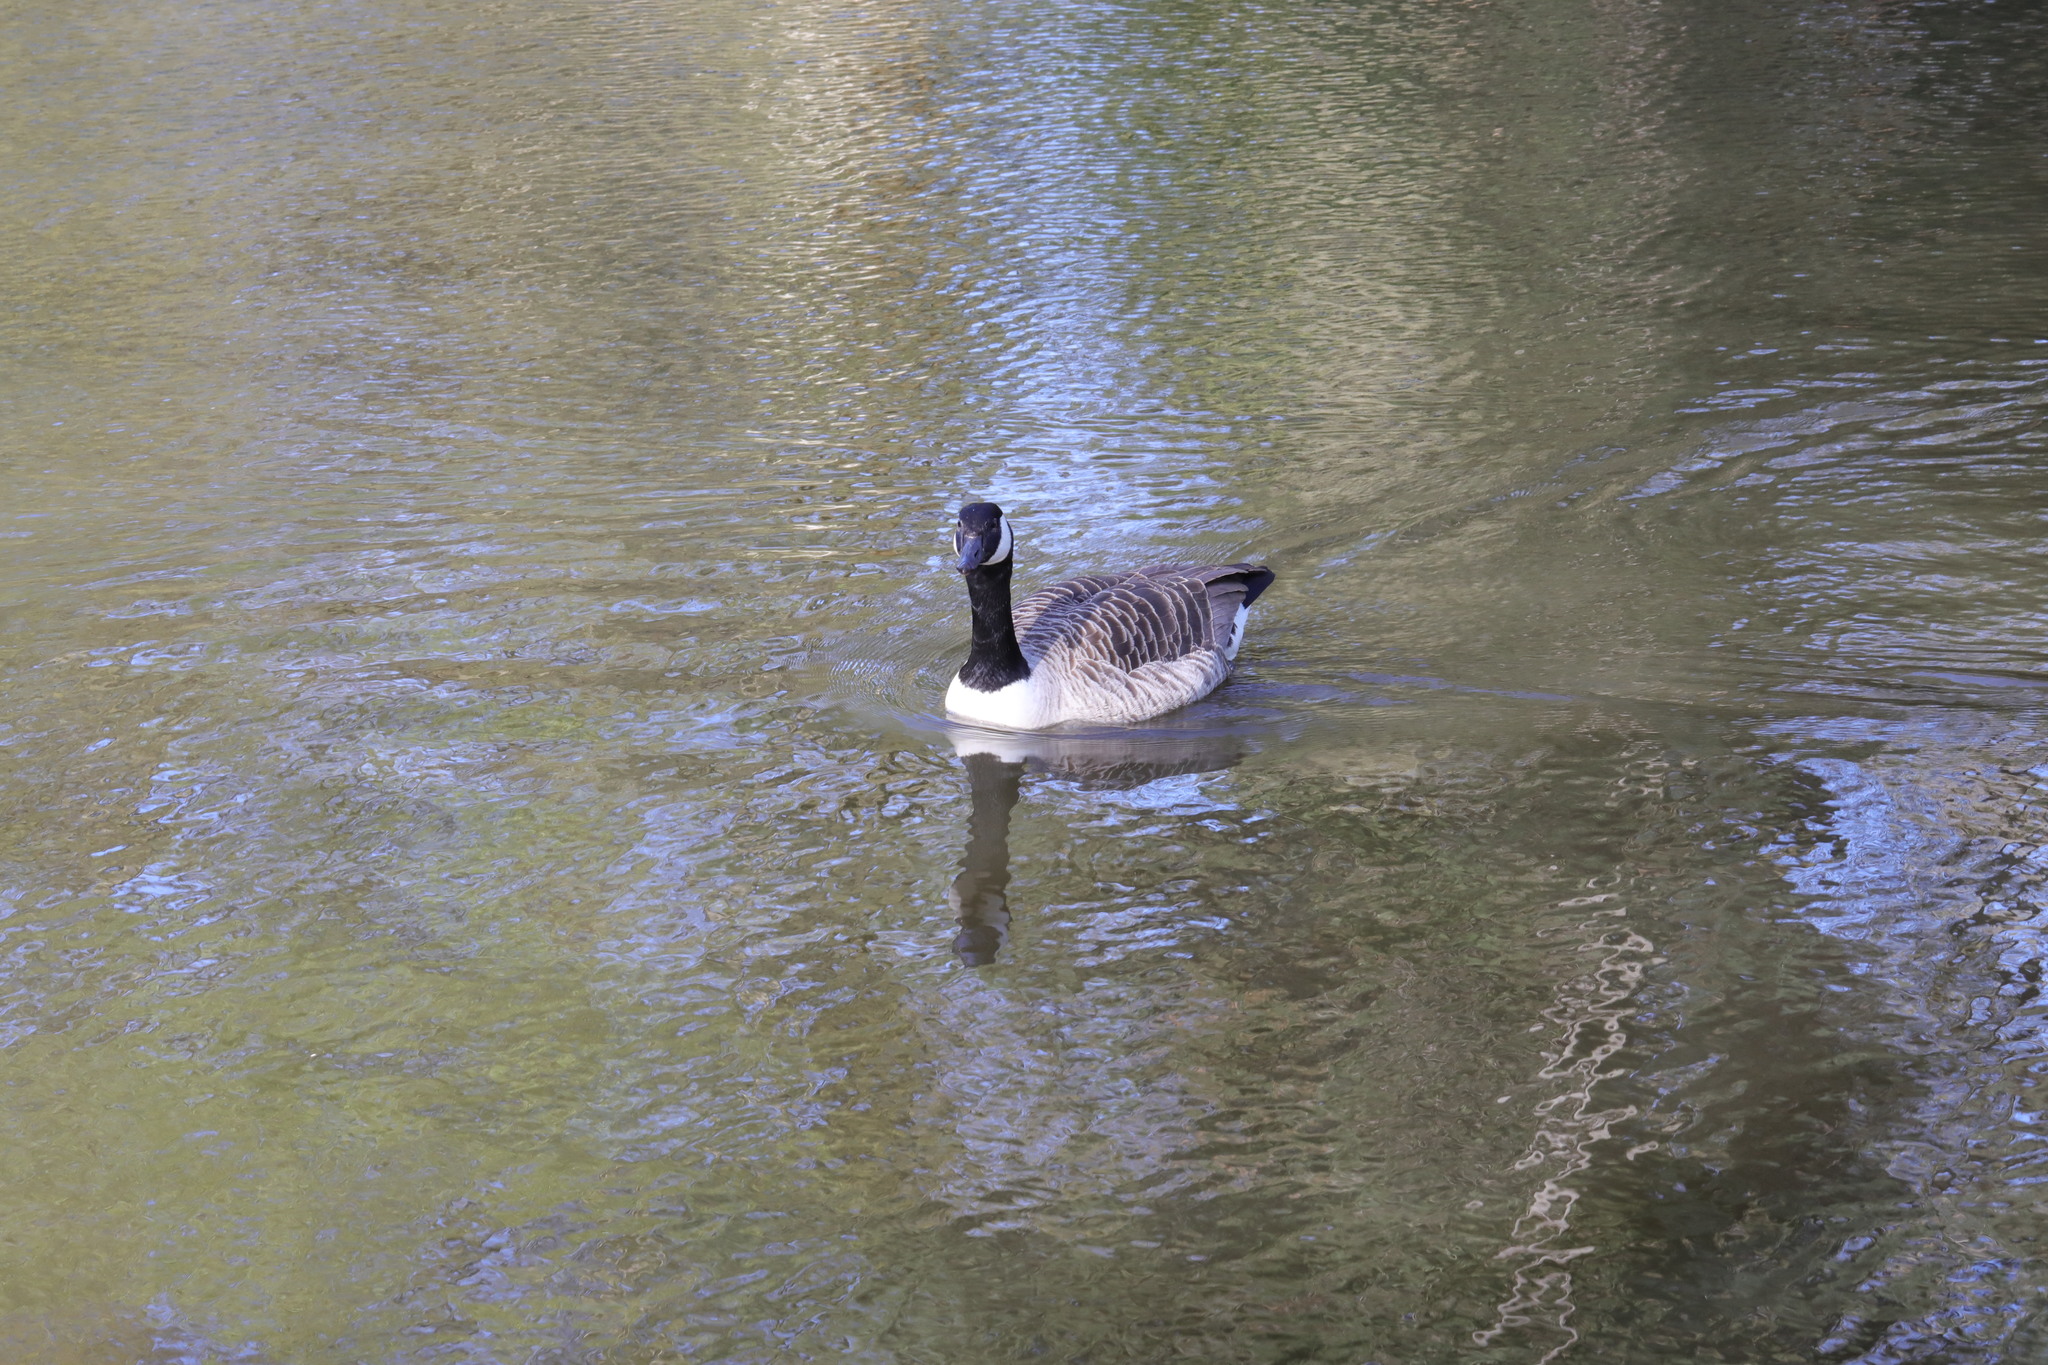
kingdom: Animalia
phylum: Chordata
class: Aves
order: Anseriformes
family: Anatidae
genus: Branta
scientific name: Branta canadensis
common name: Canada goose
